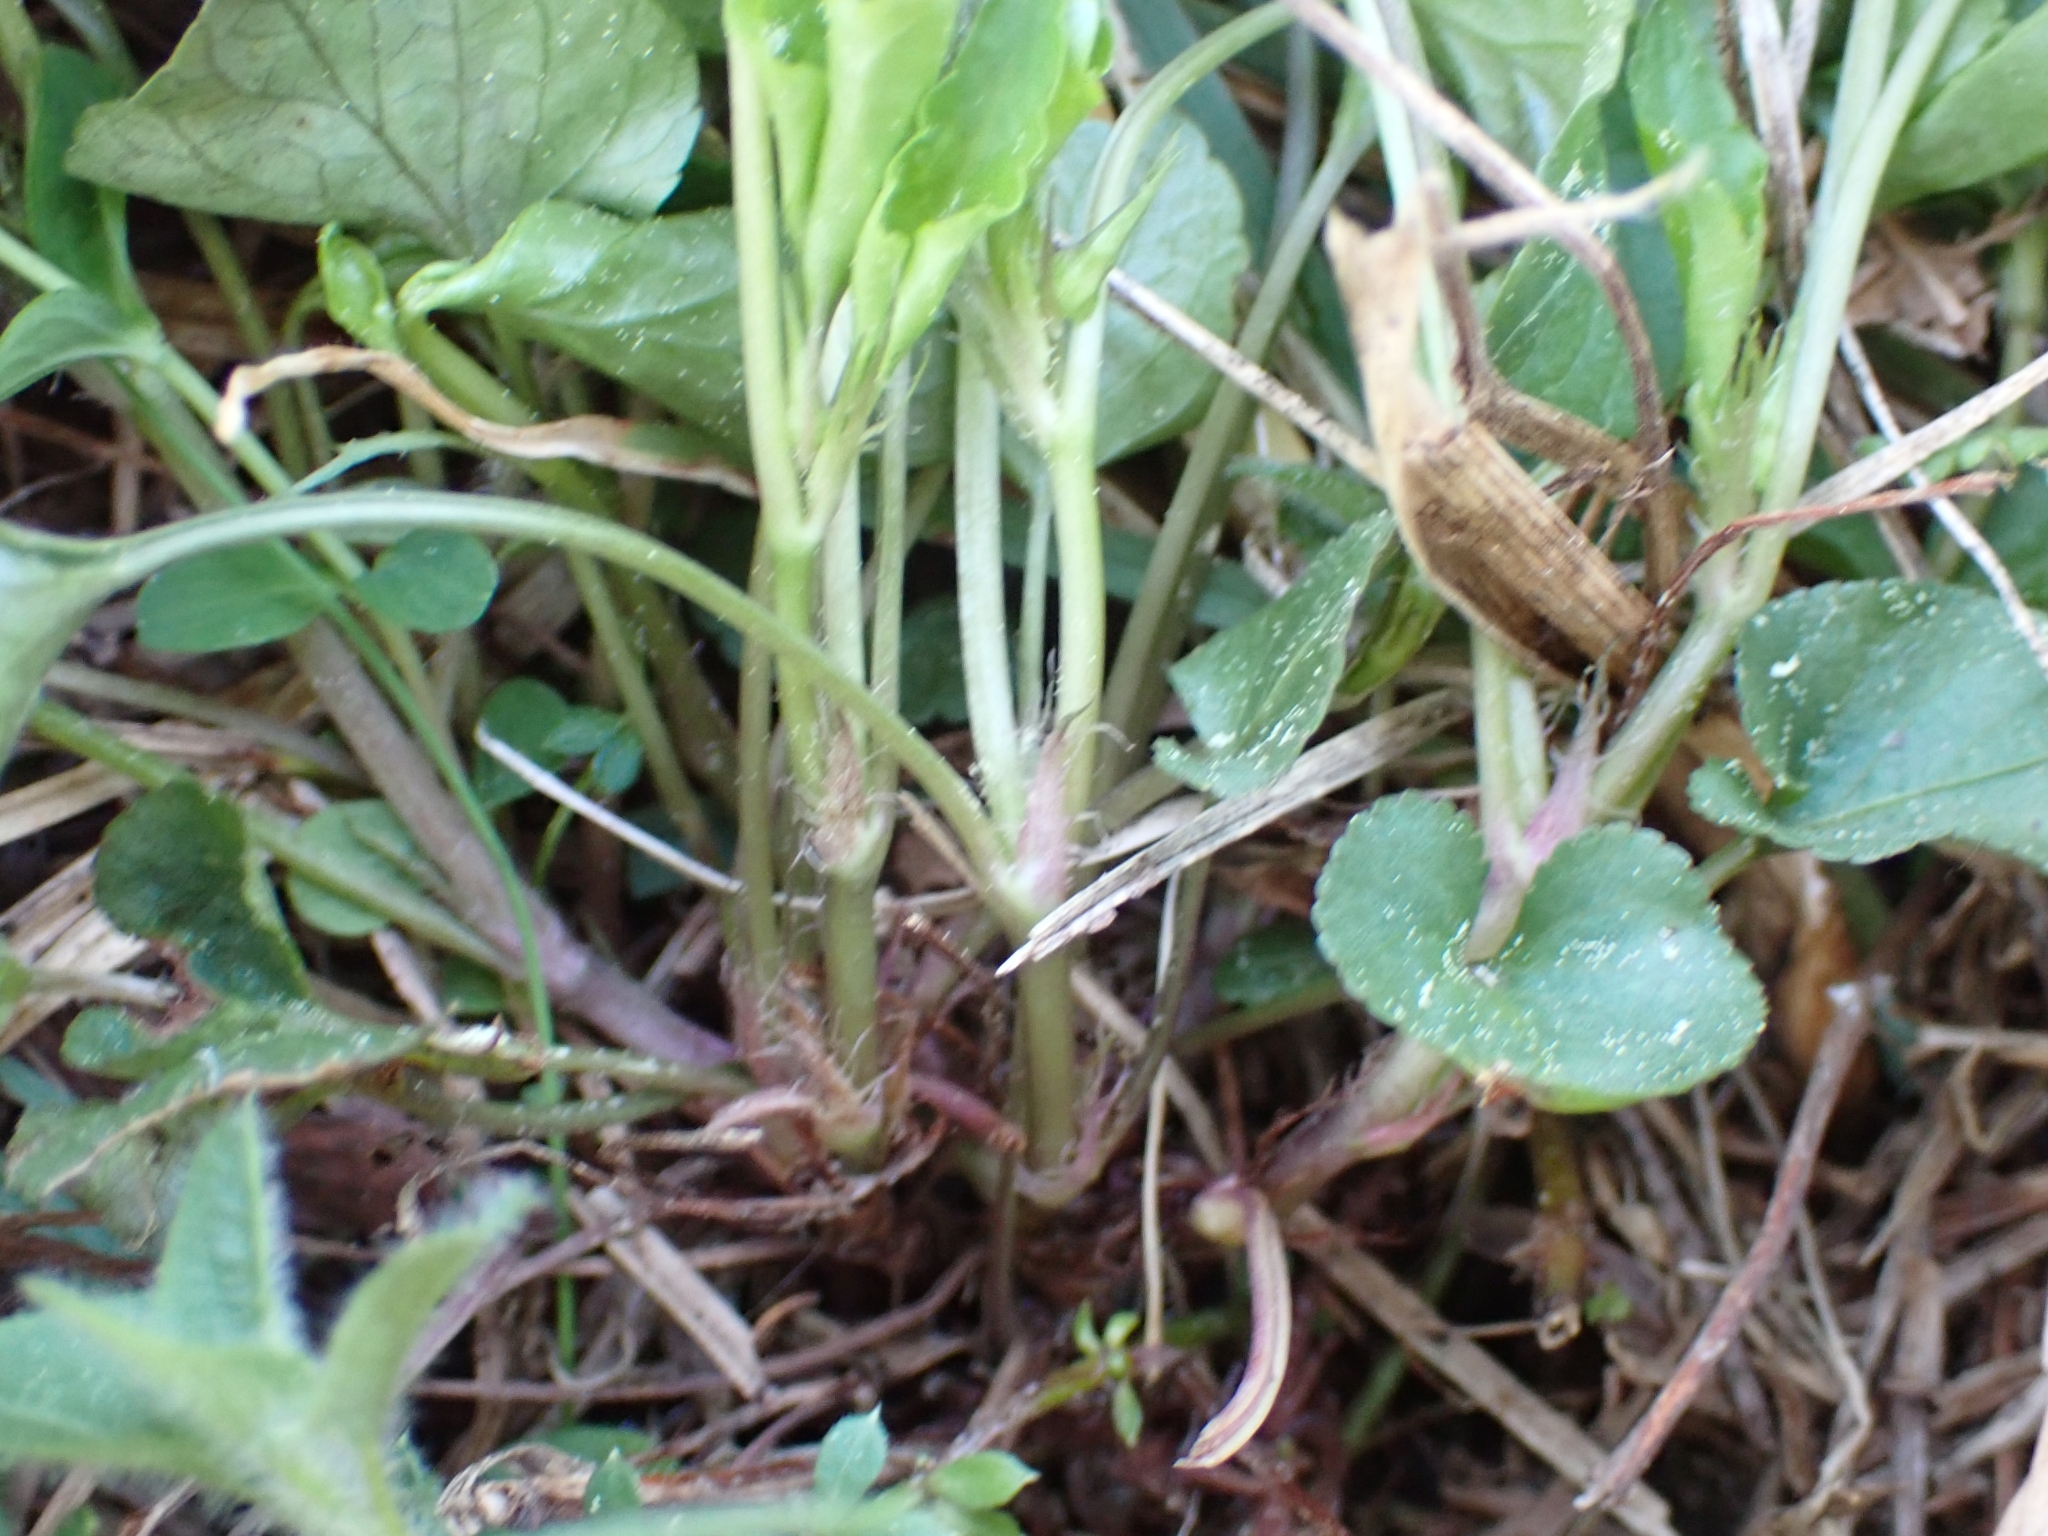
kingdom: Plantae
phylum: Tracheophyta
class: Magnoliopsida
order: Malpighiales
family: Violaceae
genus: Viola
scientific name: Viola riviniana
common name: Common dog-violet
